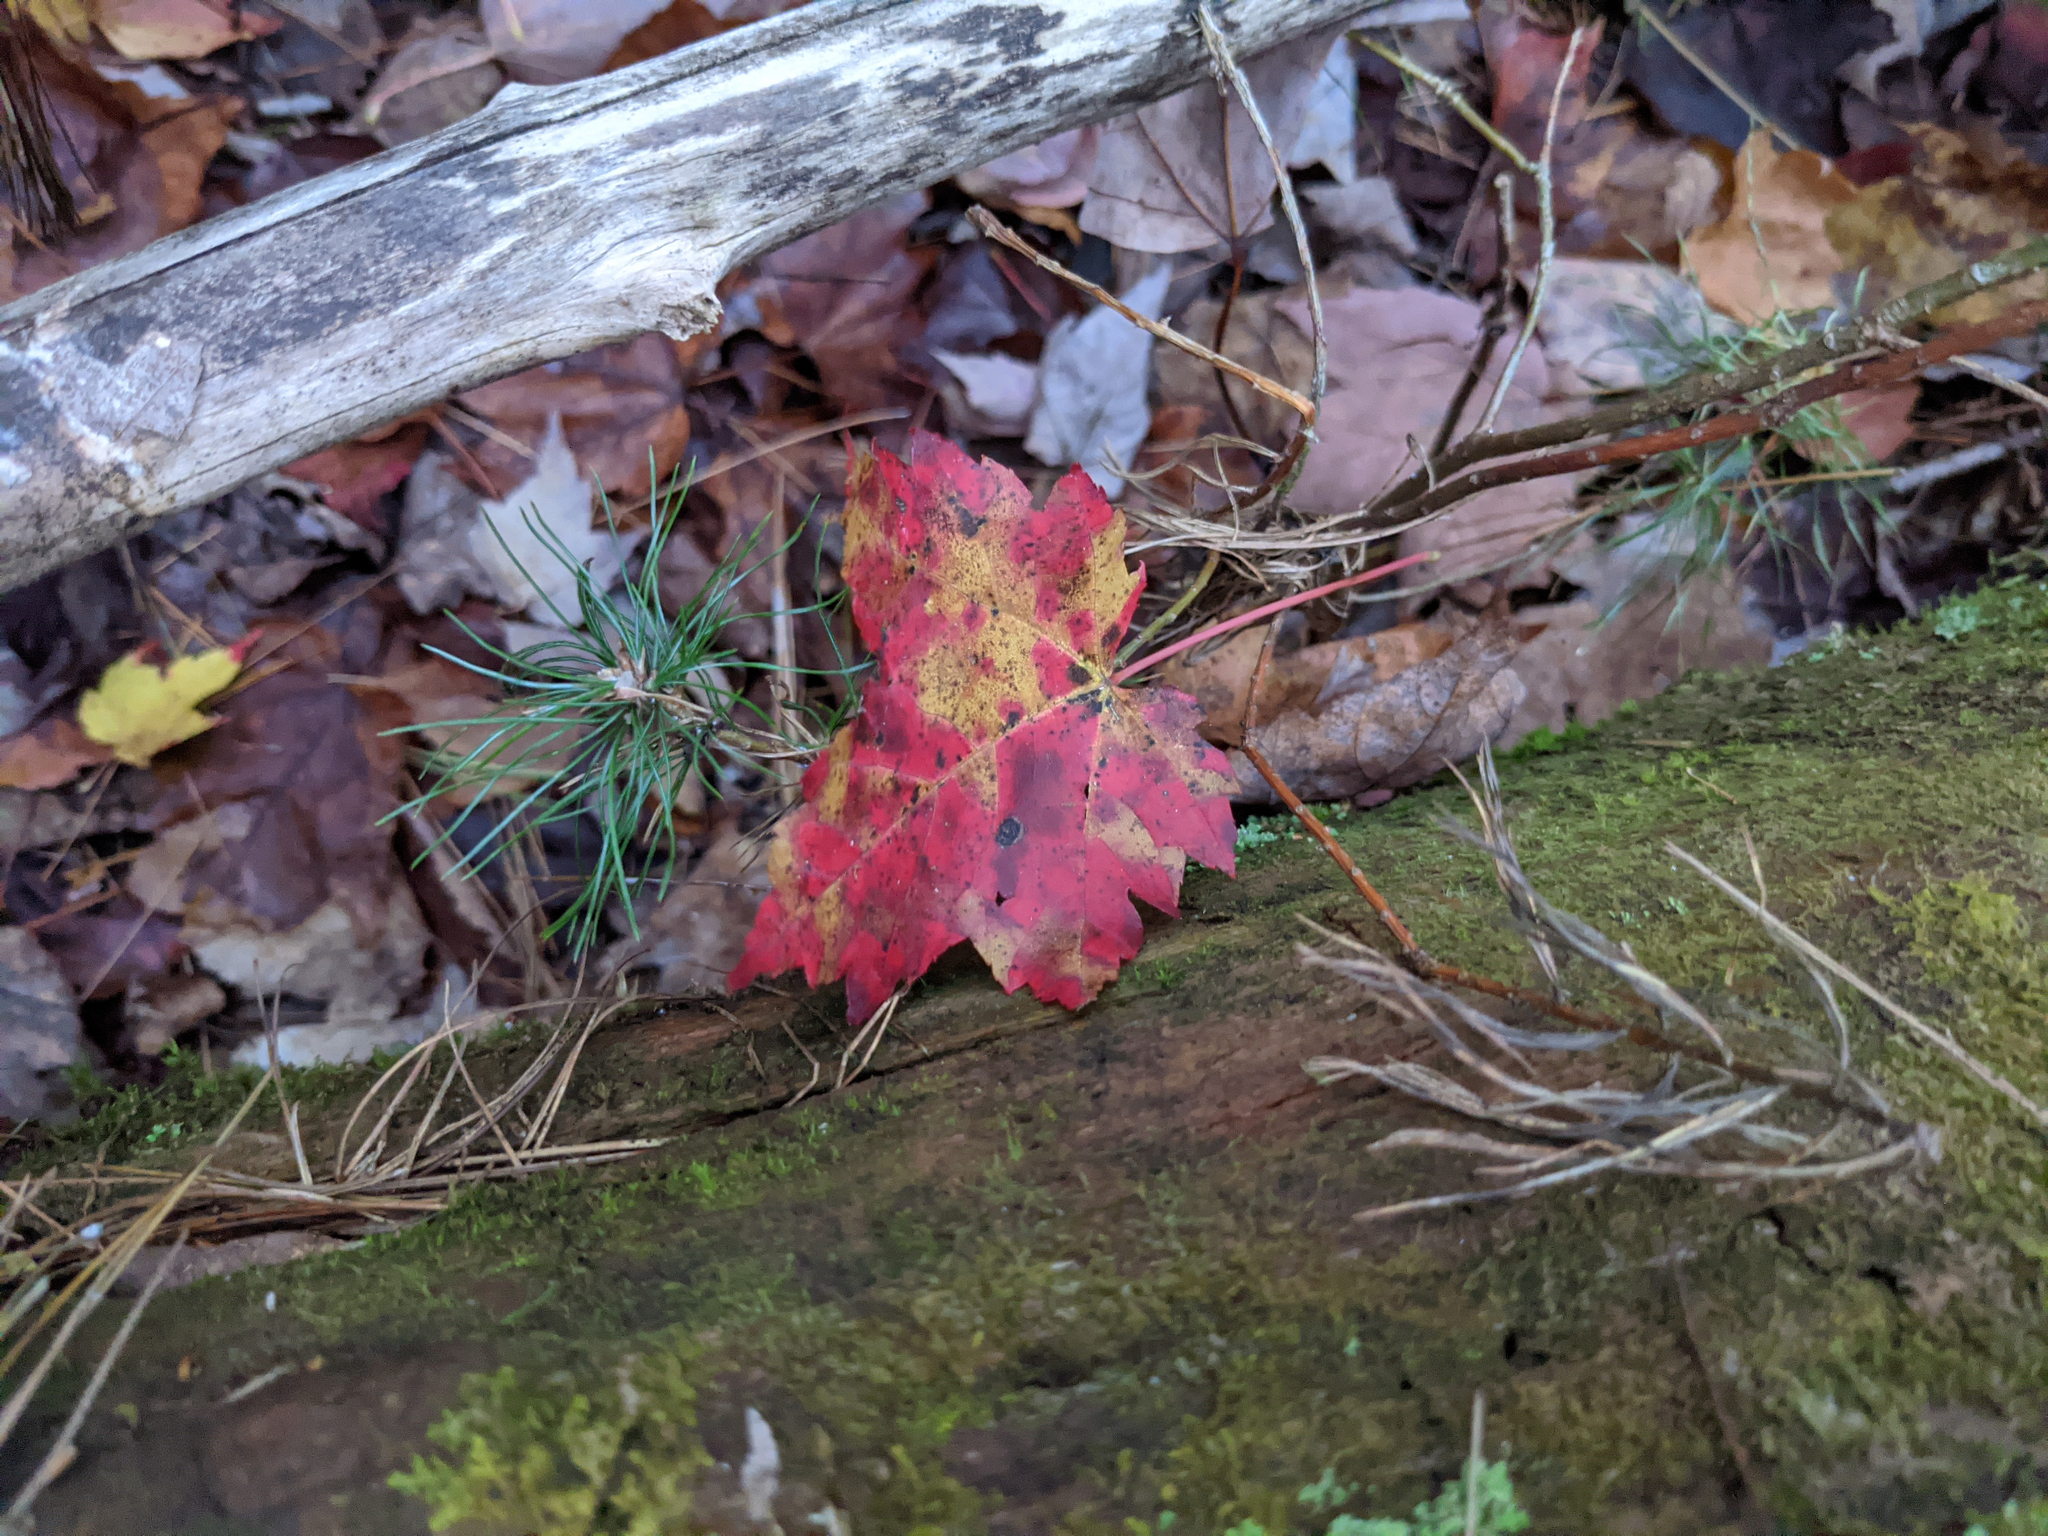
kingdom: Plantae
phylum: Tracheophyta
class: Magnoliopsida
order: Sapindales
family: Sapindaceae
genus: Acer
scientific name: Acer rubrum
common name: Red maple
